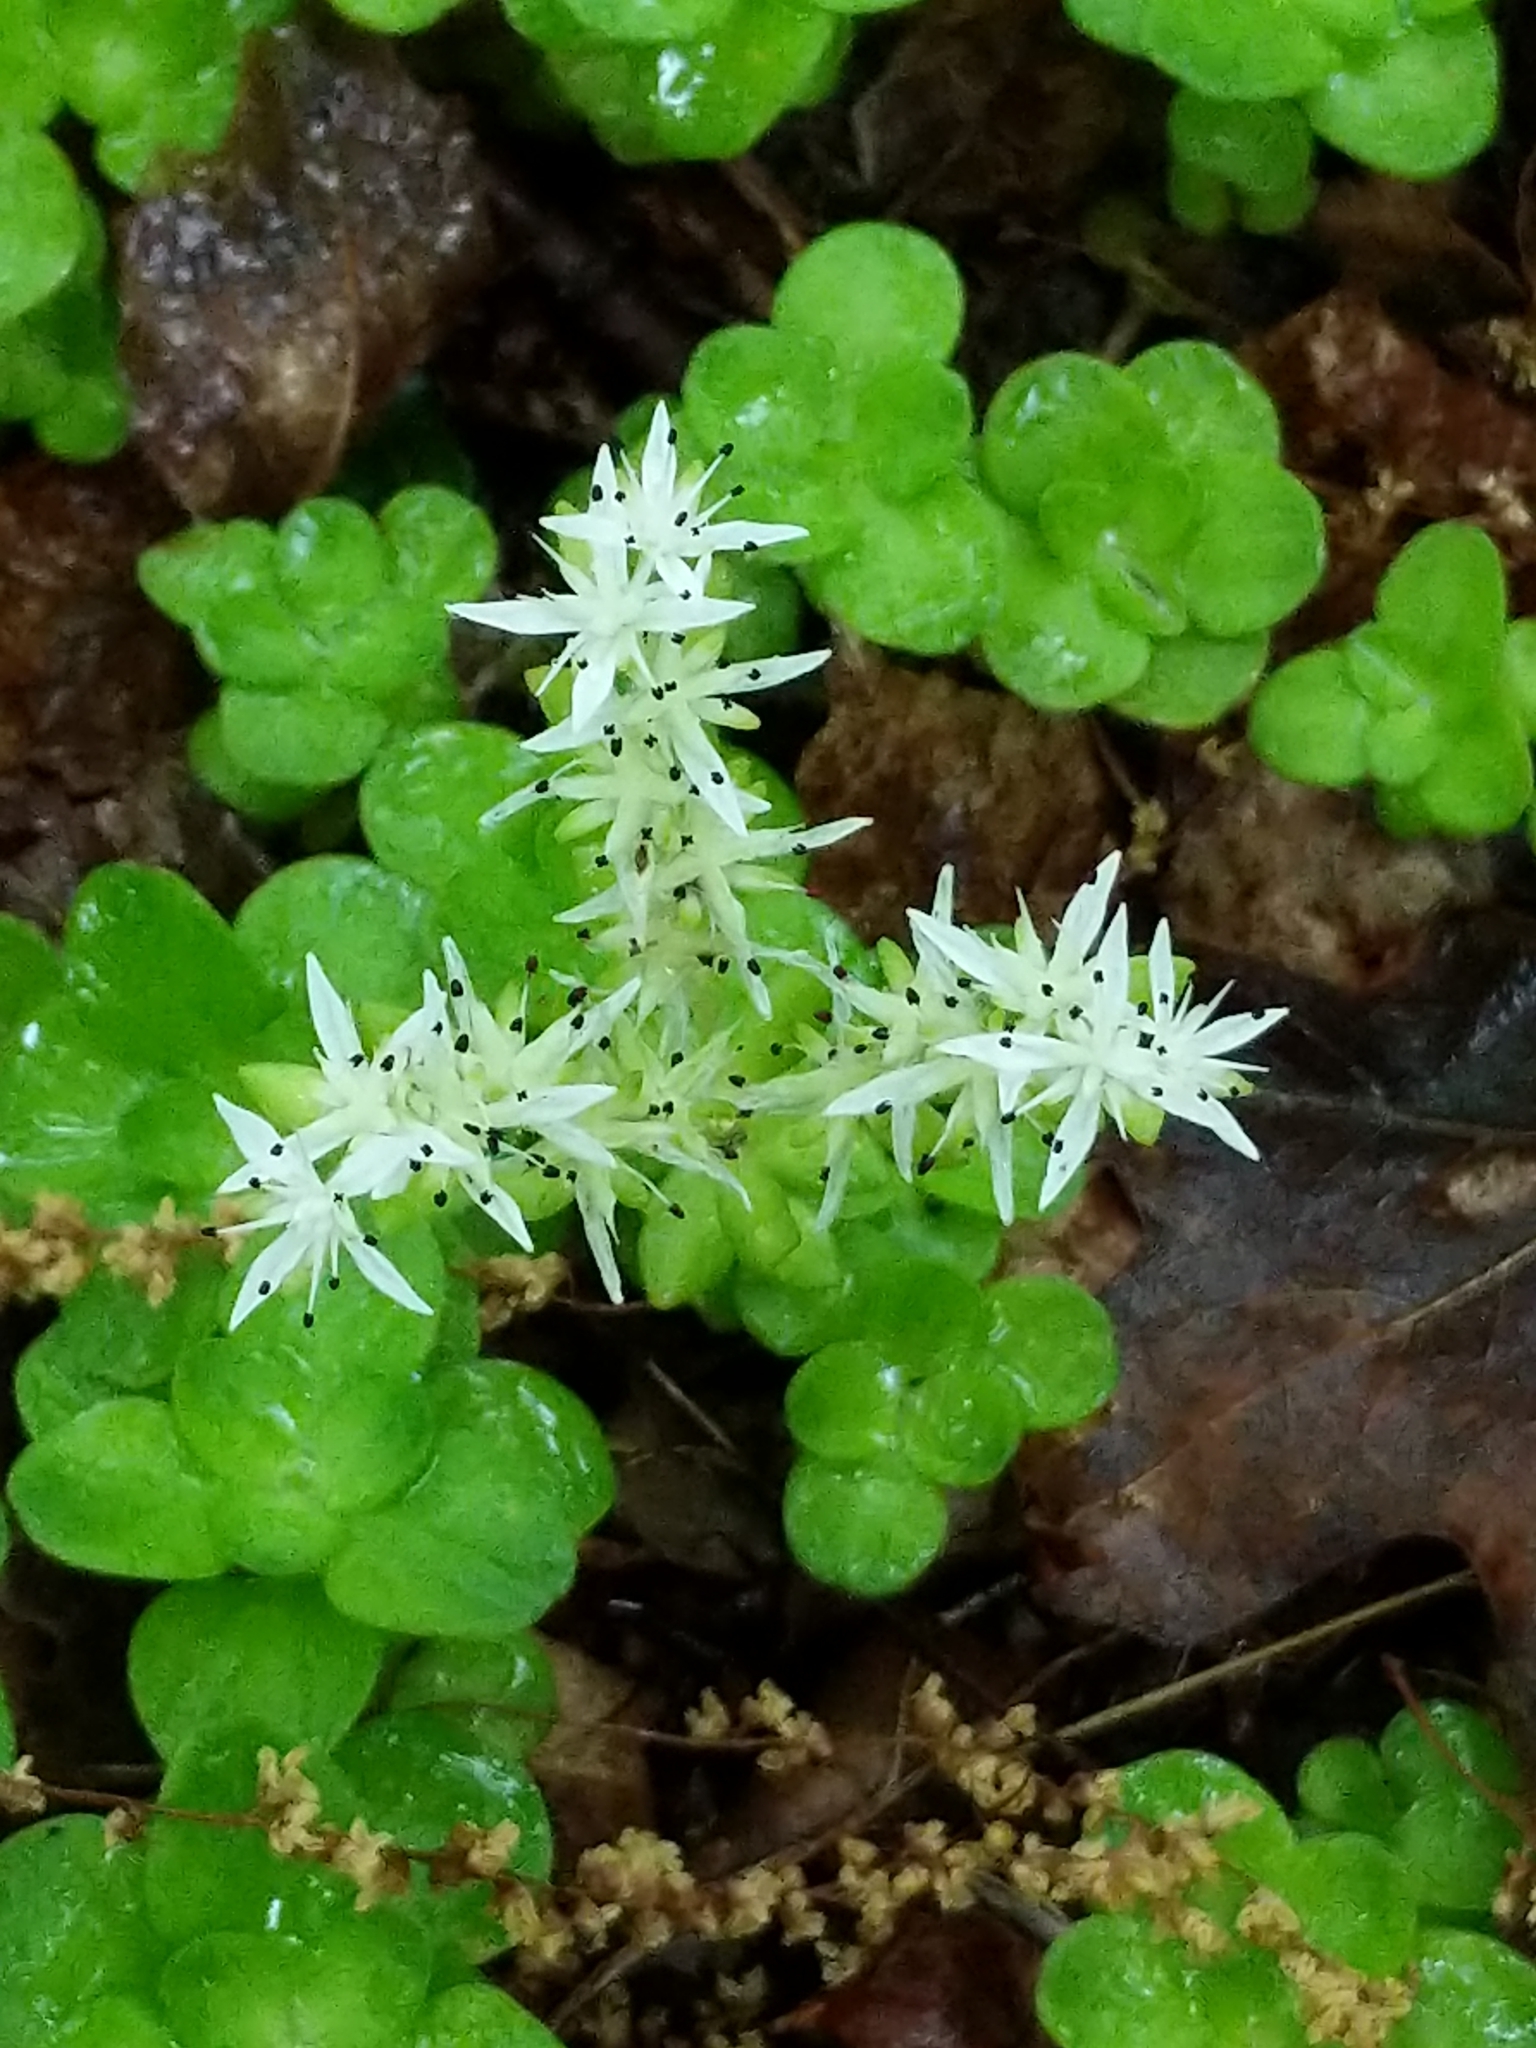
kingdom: Plantae
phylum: Tracheophyta
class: Magnoliopsida
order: Saxifragales
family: Crassulaceae
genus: Sedum
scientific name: Sedum ternatum
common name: Wild stonecrop
